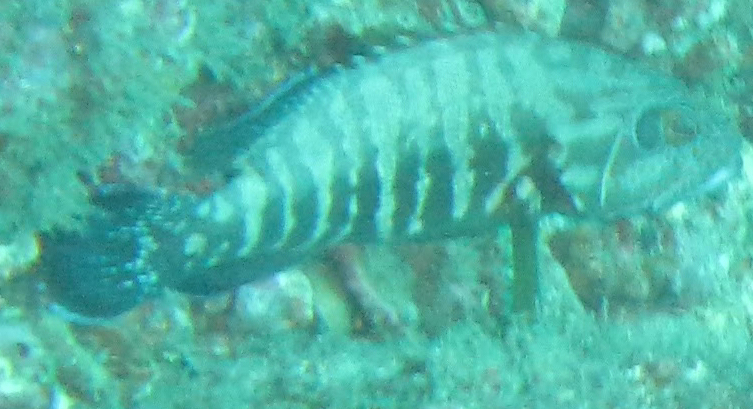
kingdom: Animalia
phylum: Chordata
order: Perciformes
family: Serranidae
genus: Cephalopholis
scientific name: Cephalopholis panamensis
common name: Pacific graysby
